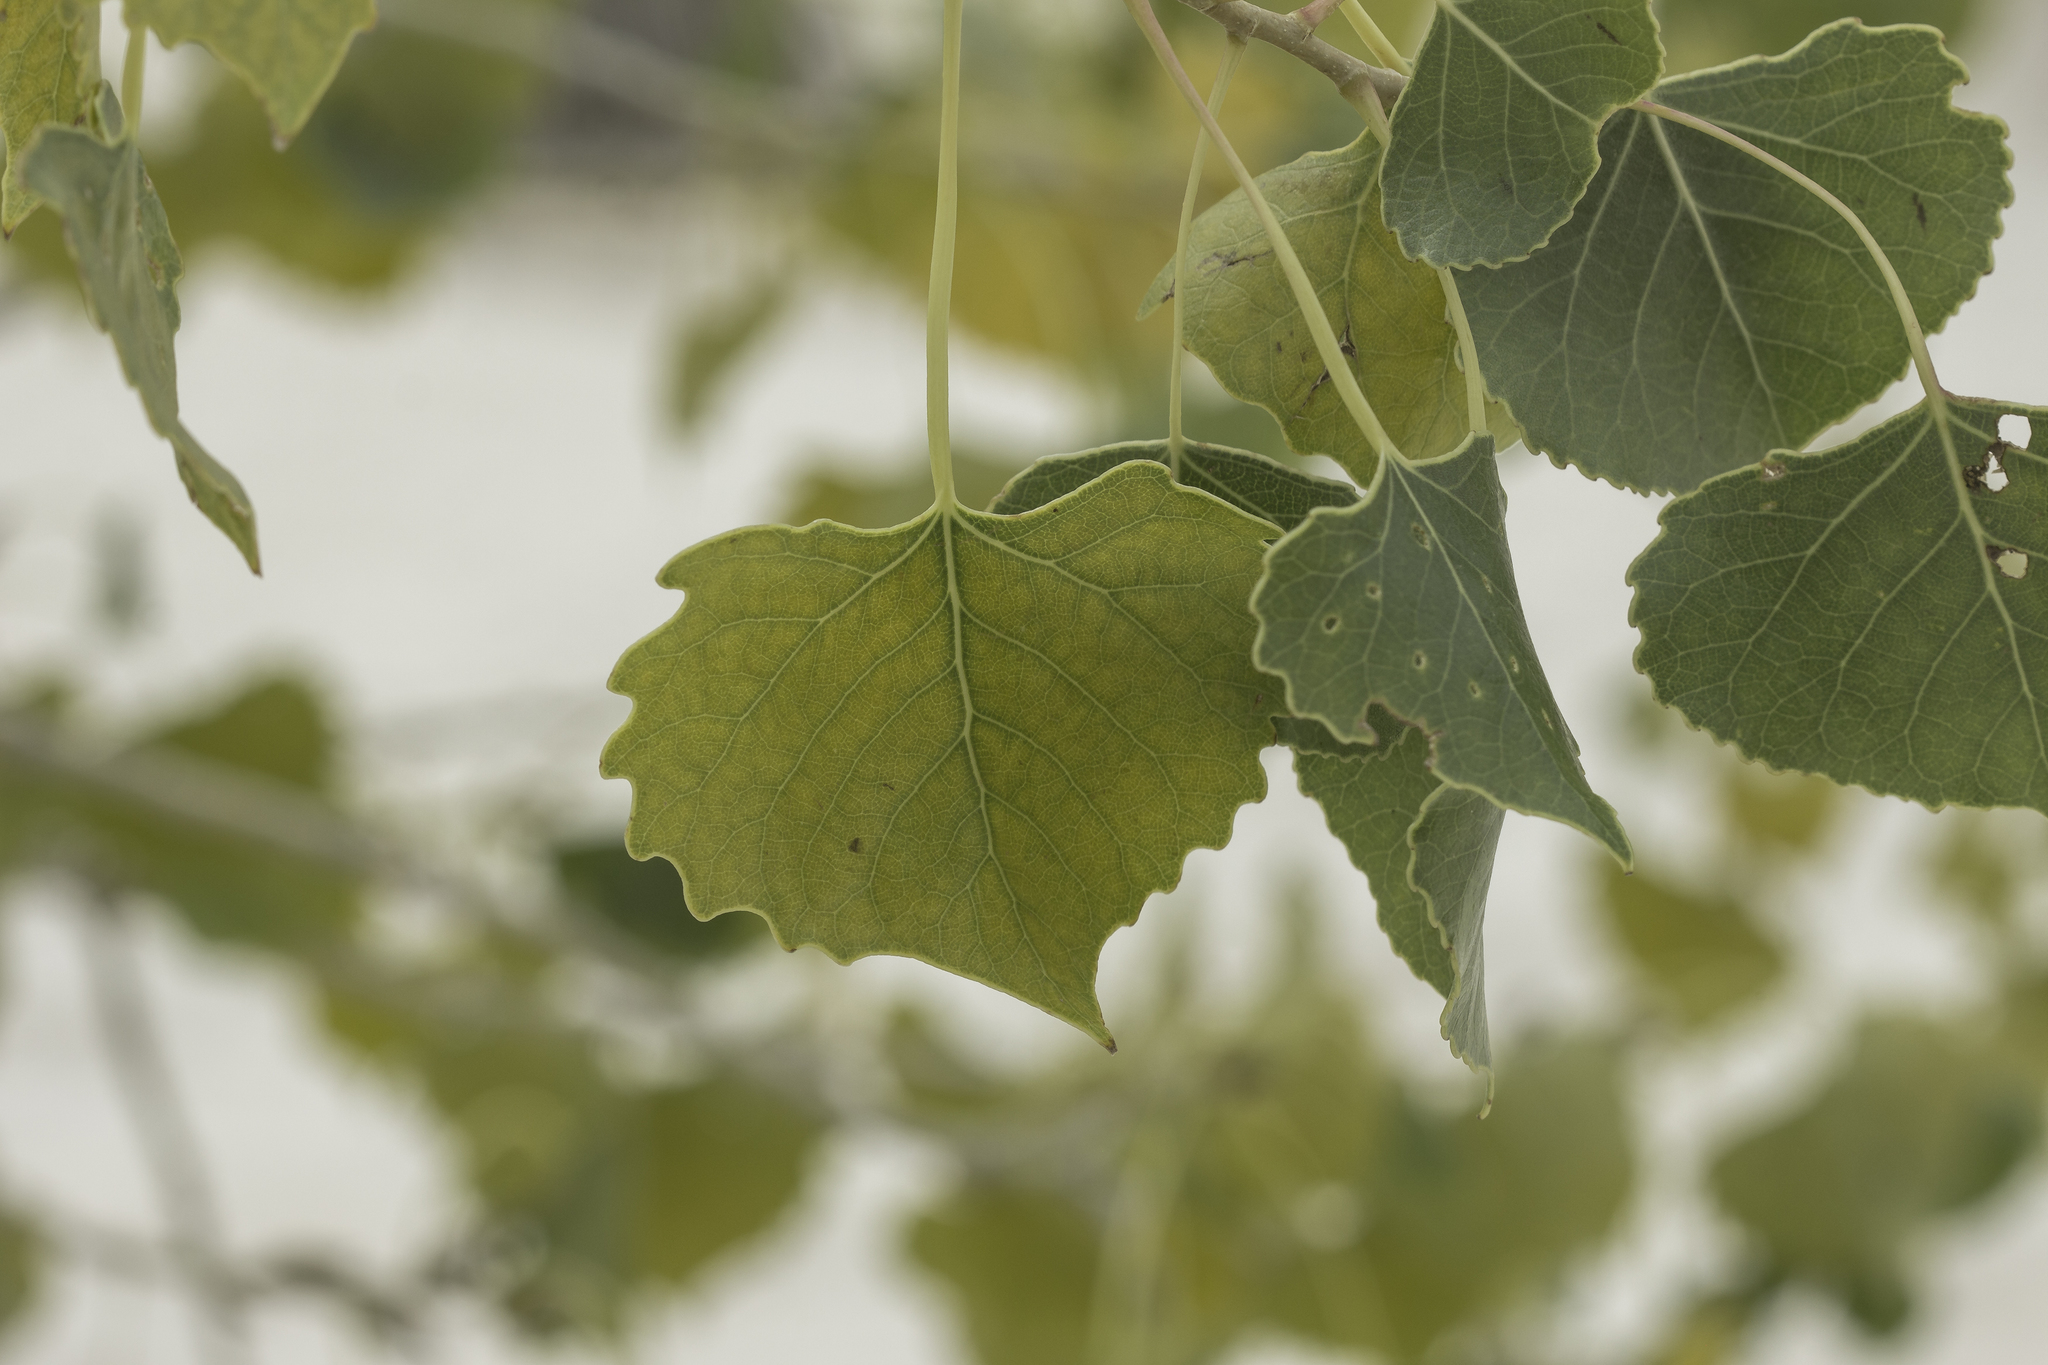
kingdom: Plantae
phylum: Tracheophyta
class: Magnoliopsida
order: Malpighiales
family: Salicaceae
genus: Populus
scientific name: Populus deltoides
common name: Eastern cottonwood
